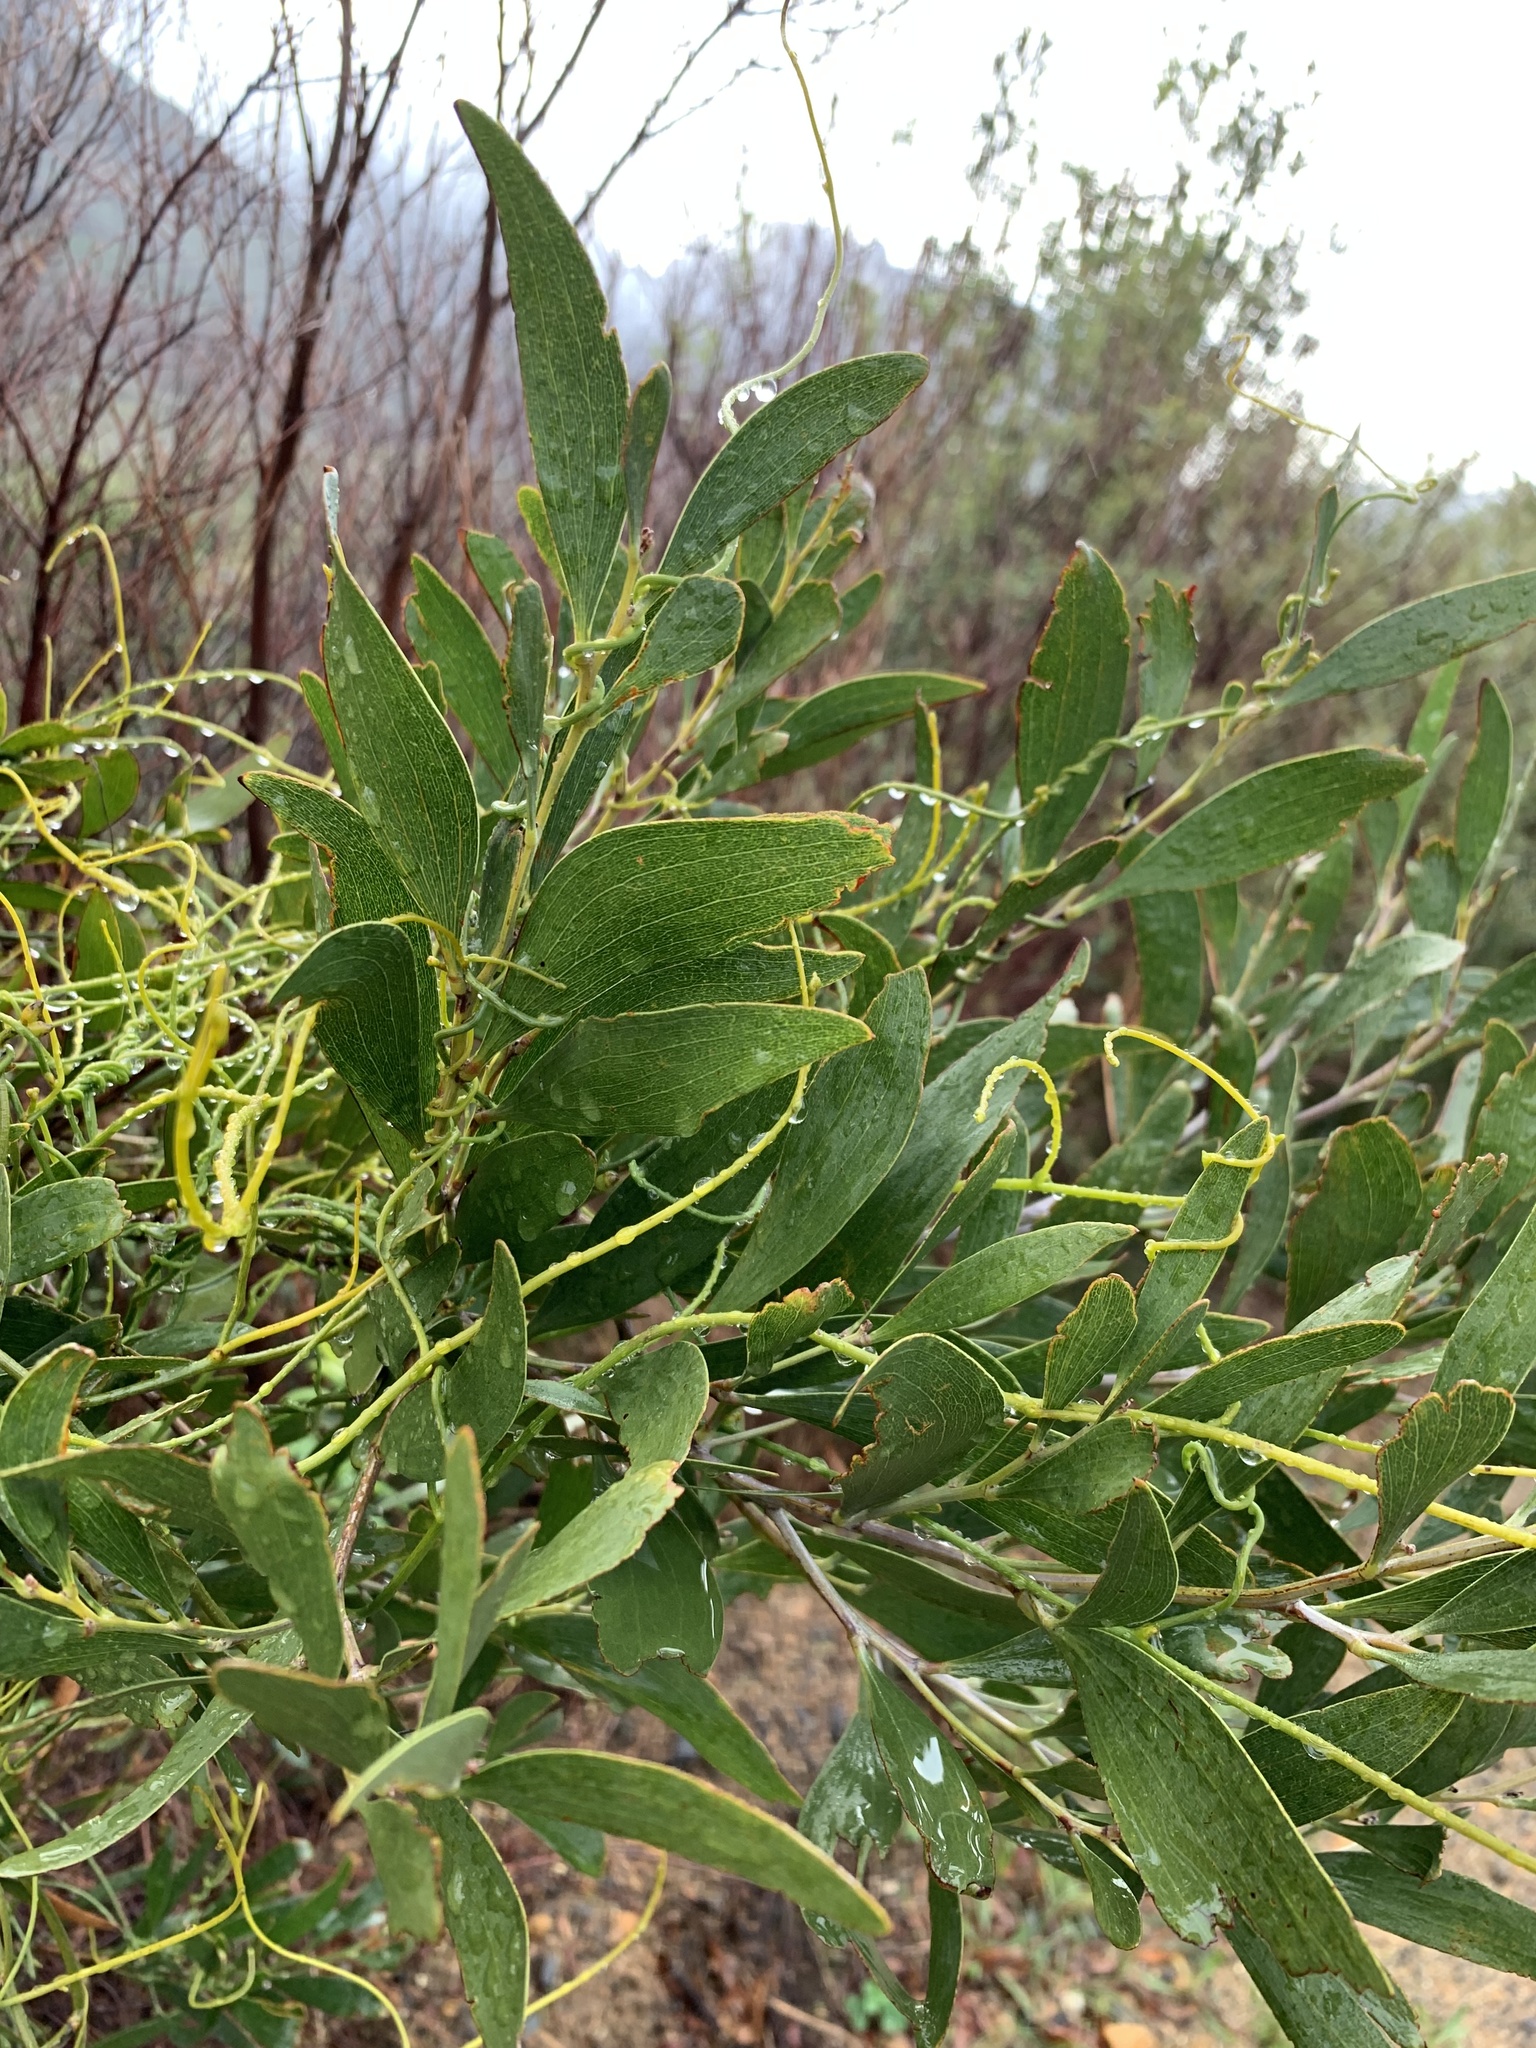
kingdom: Plantae
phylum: Tracheophyta
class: Magnoliopsida
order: Fabales
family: Fabaceae
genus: Acacia
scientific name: Acacia melanoxylon
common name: Blackwood
